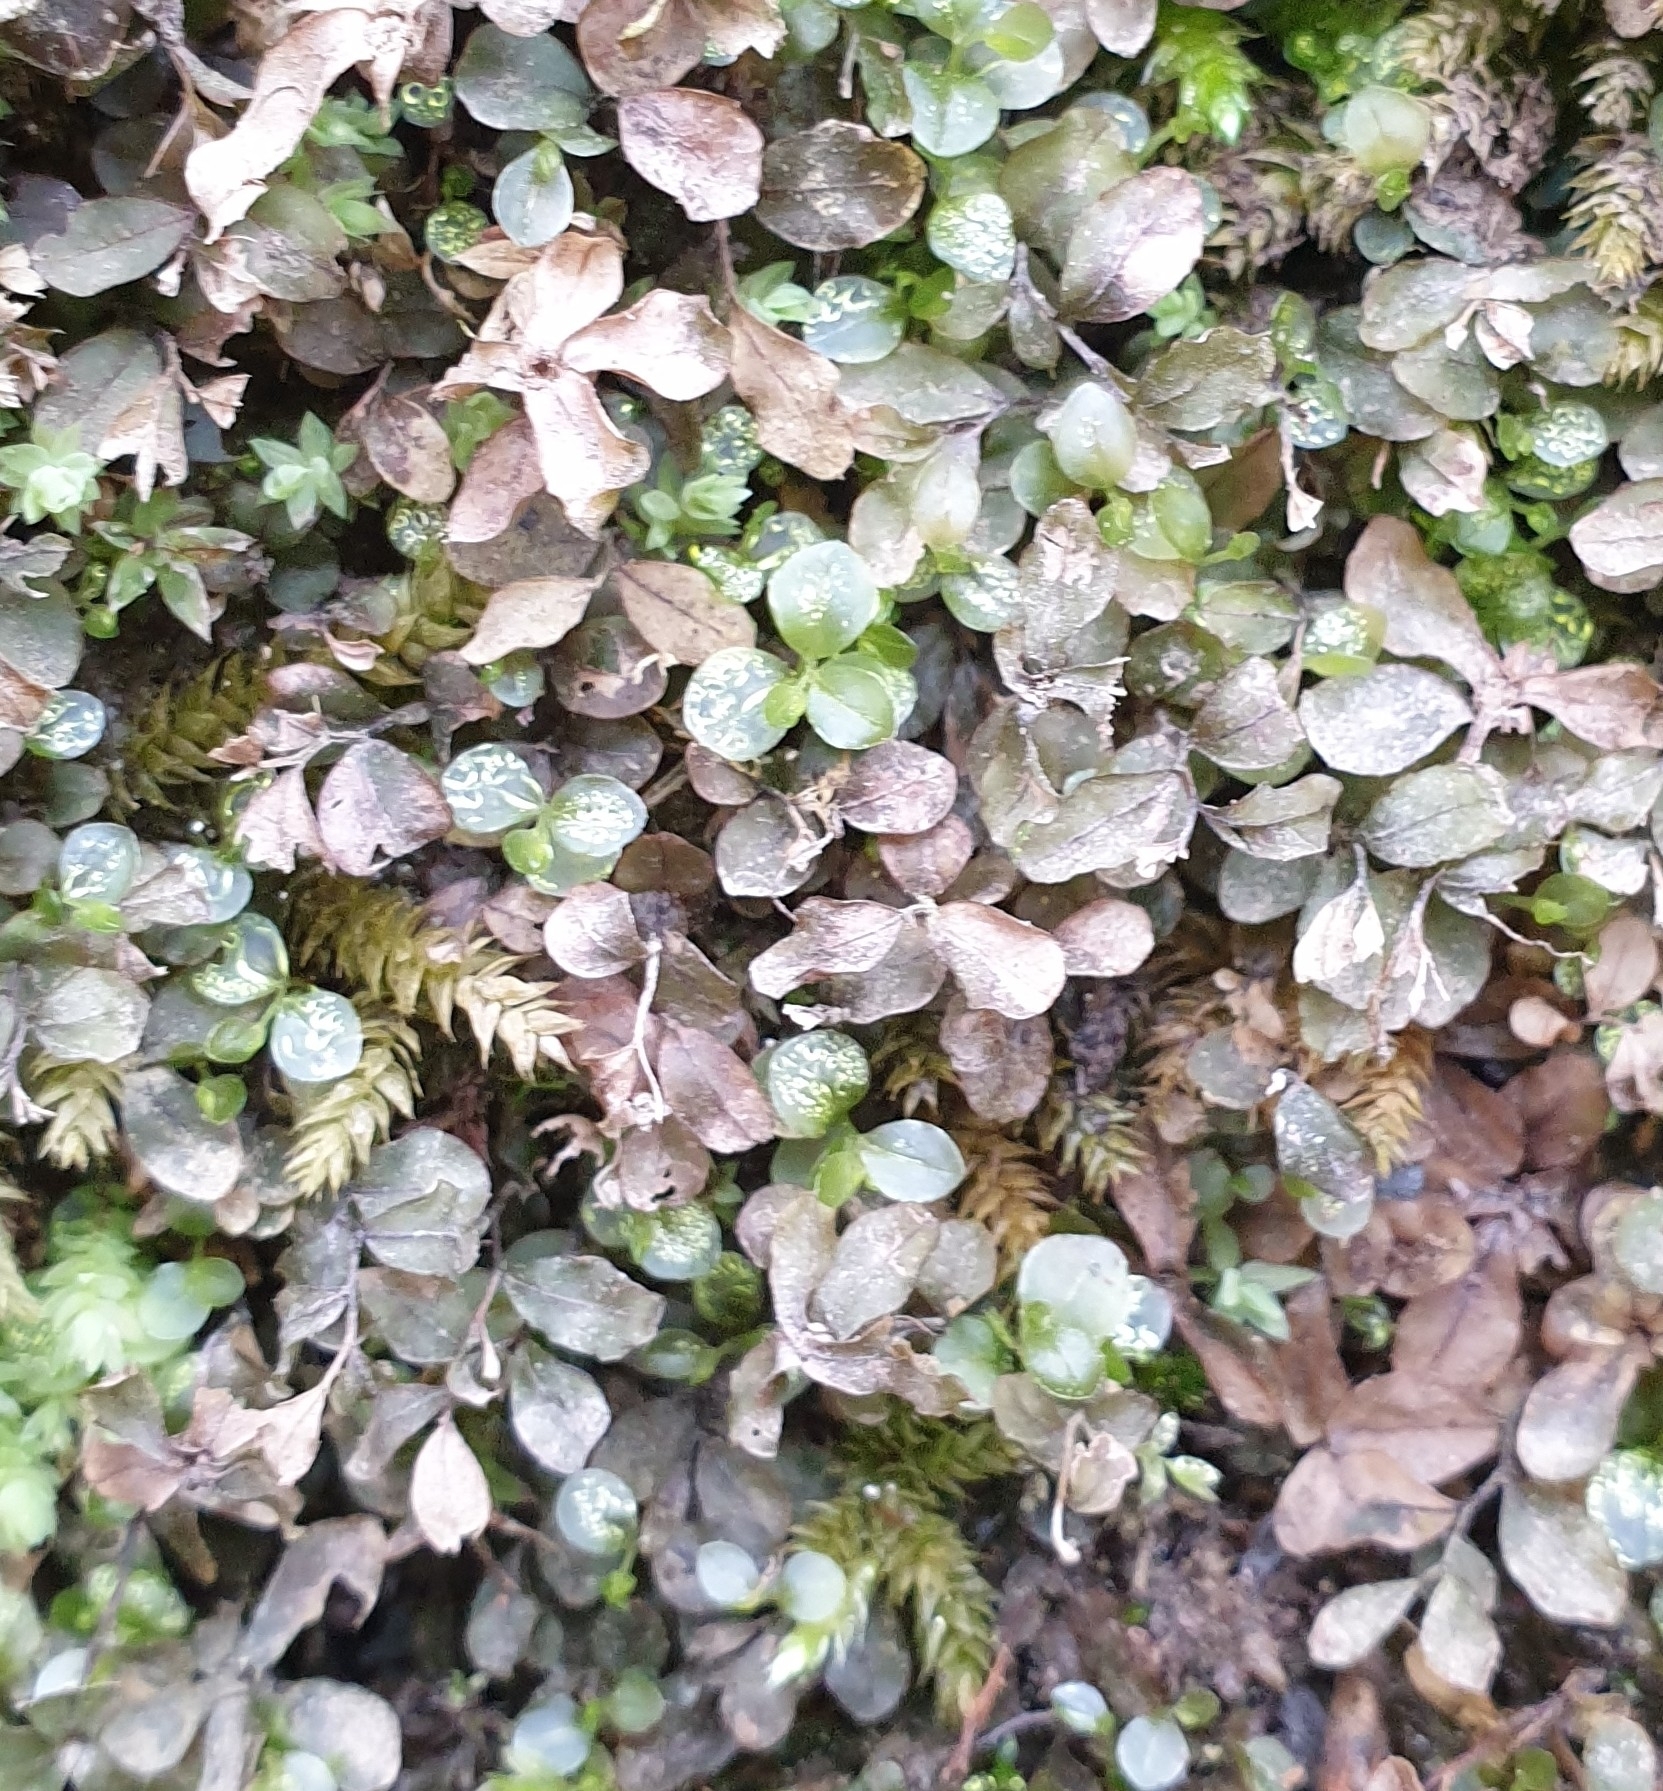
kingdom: Plantae
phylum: Bryophyta
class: Bryopsida
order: Bryales
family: Mniaceae
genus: Rhizomnium
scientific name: Rhizomnium punctatum
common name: Dotted leafy moss
